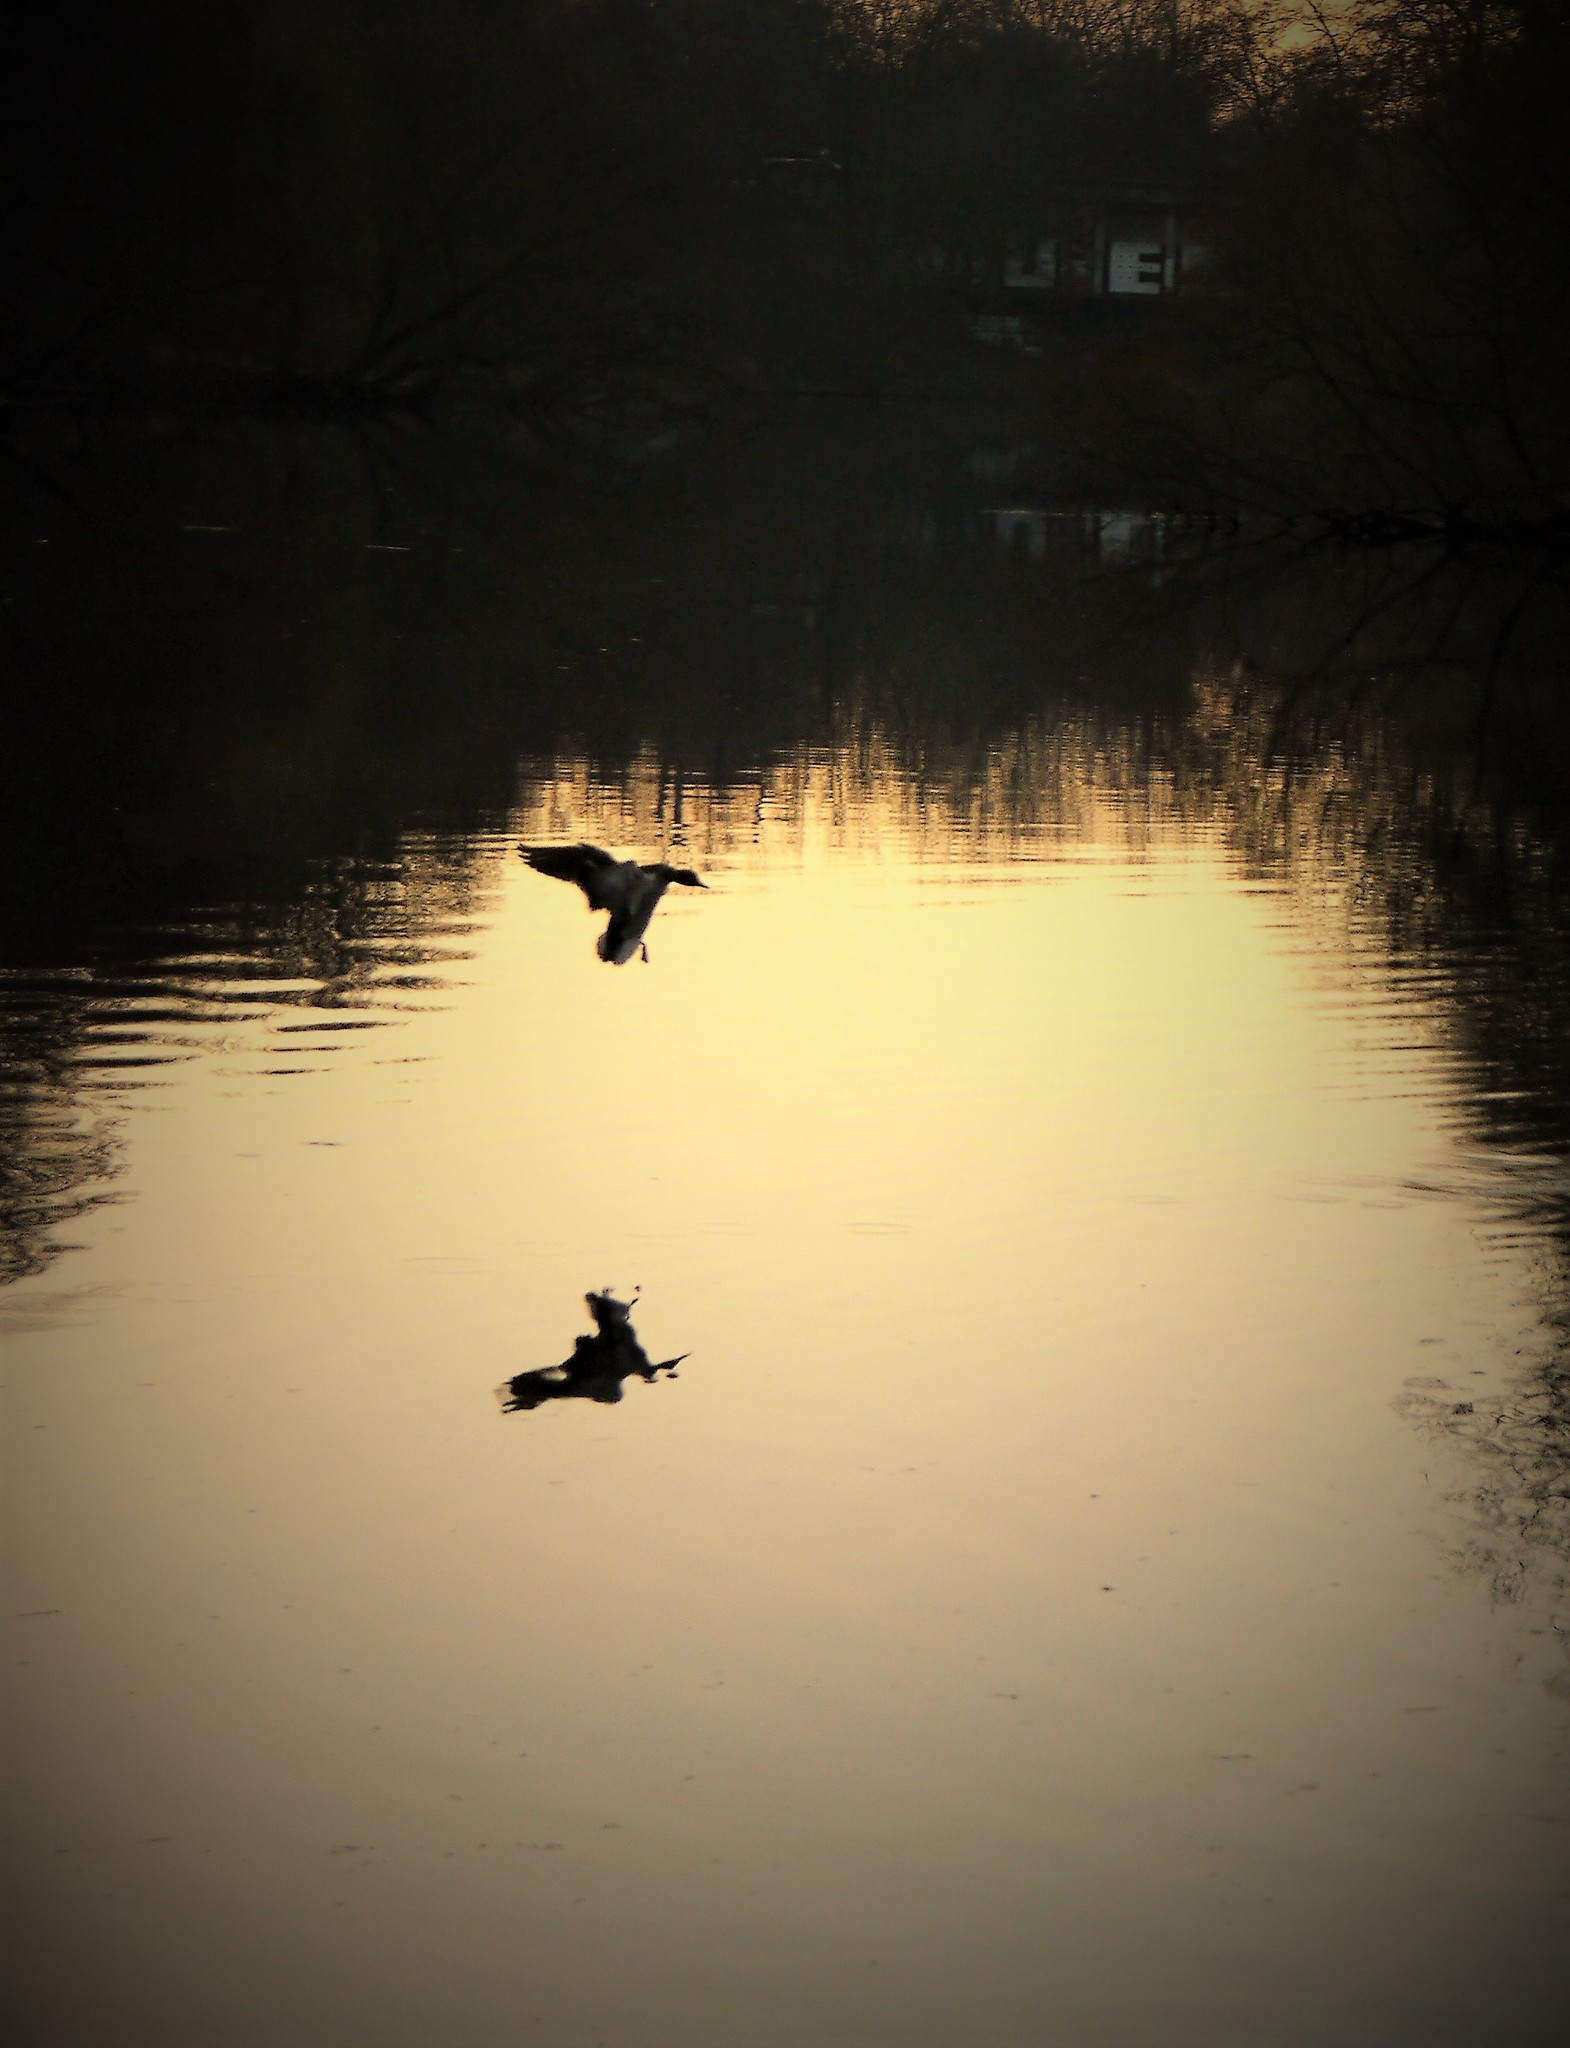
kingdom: Animalia
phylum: Chordata
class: Aves
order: Anseriformes
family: Anatidae
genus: Anas
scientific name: Anas platyrhynchos
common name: Mallard
